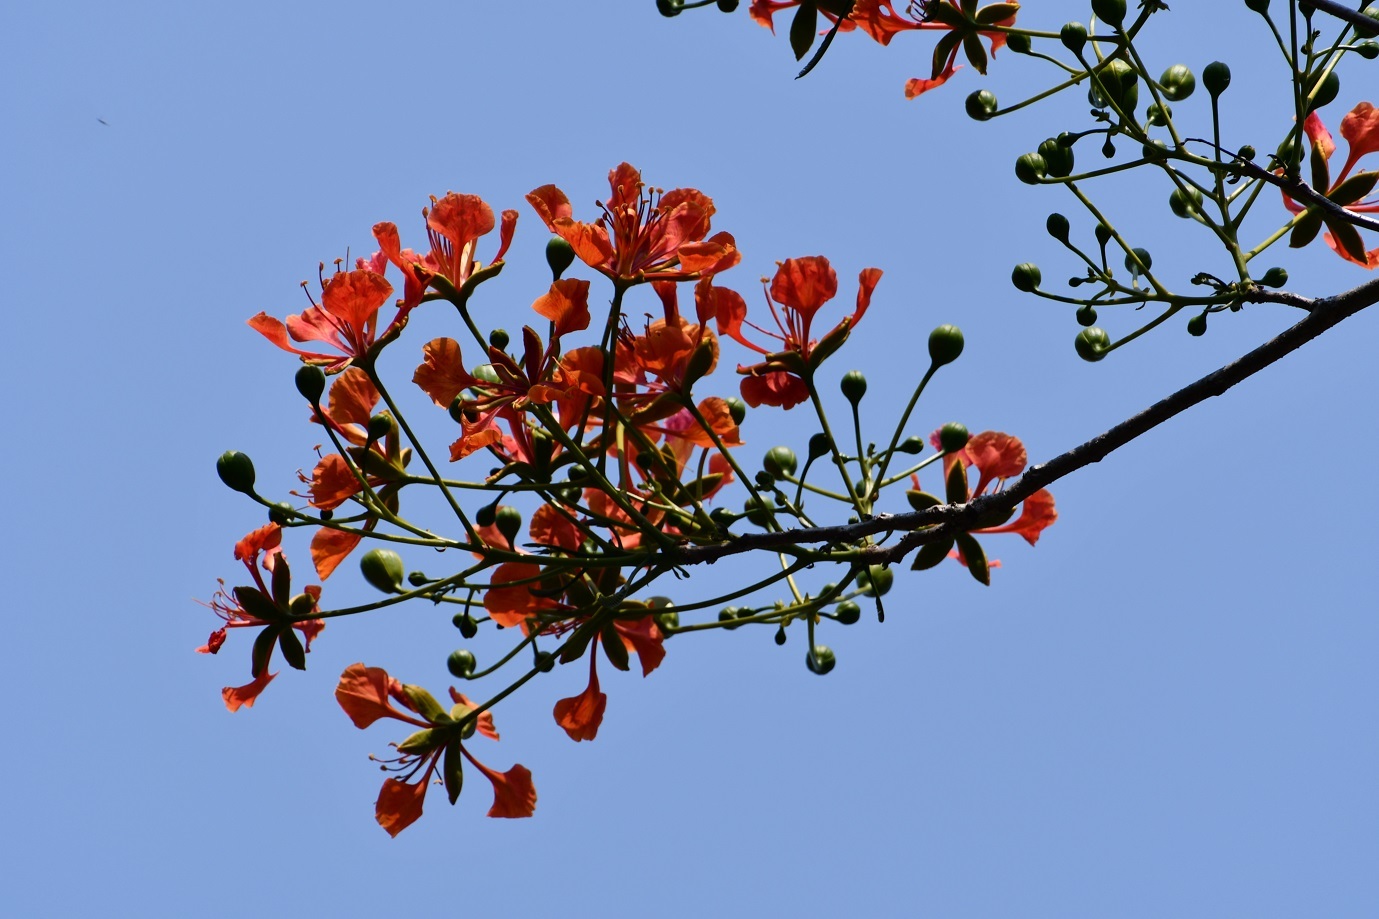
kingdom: Plantae
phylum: Tracheophyta
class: Magnoliopsida
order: Fabales
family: Fabaceae
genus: Delonix
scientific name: Delonix regia
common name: Royal poinciana
